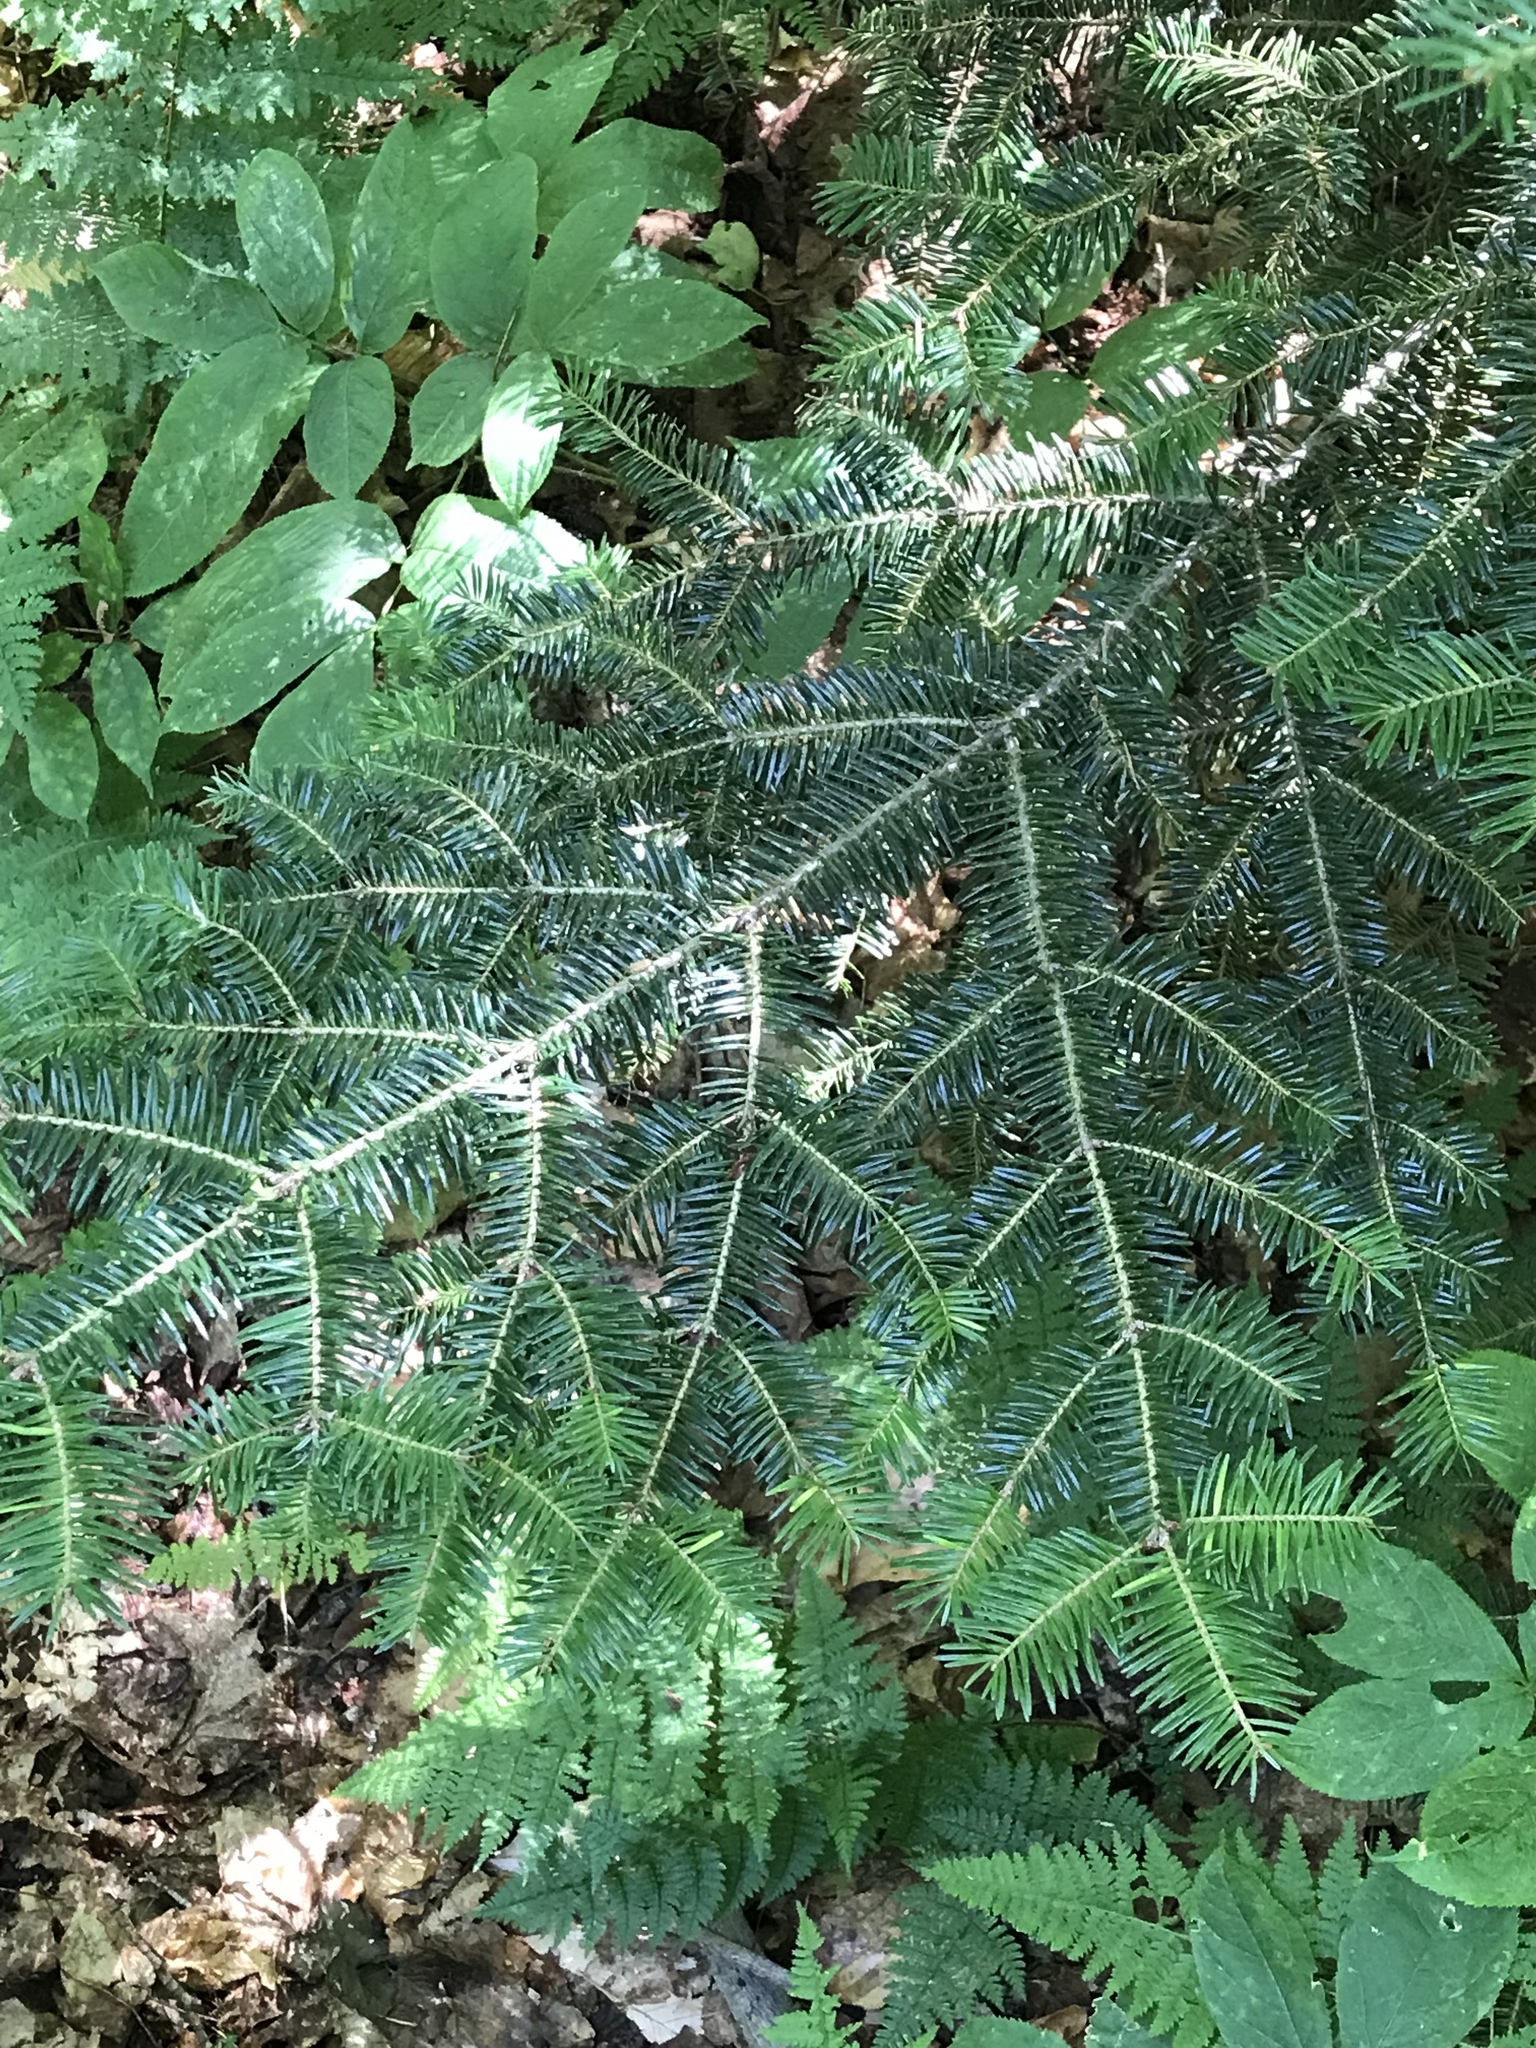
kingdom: Plantae
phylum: Tracheophyta
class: Pinopsida
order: Pinales
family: Pinaceae
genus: Abies
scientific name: Abies balsamea
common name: Balsam fir
